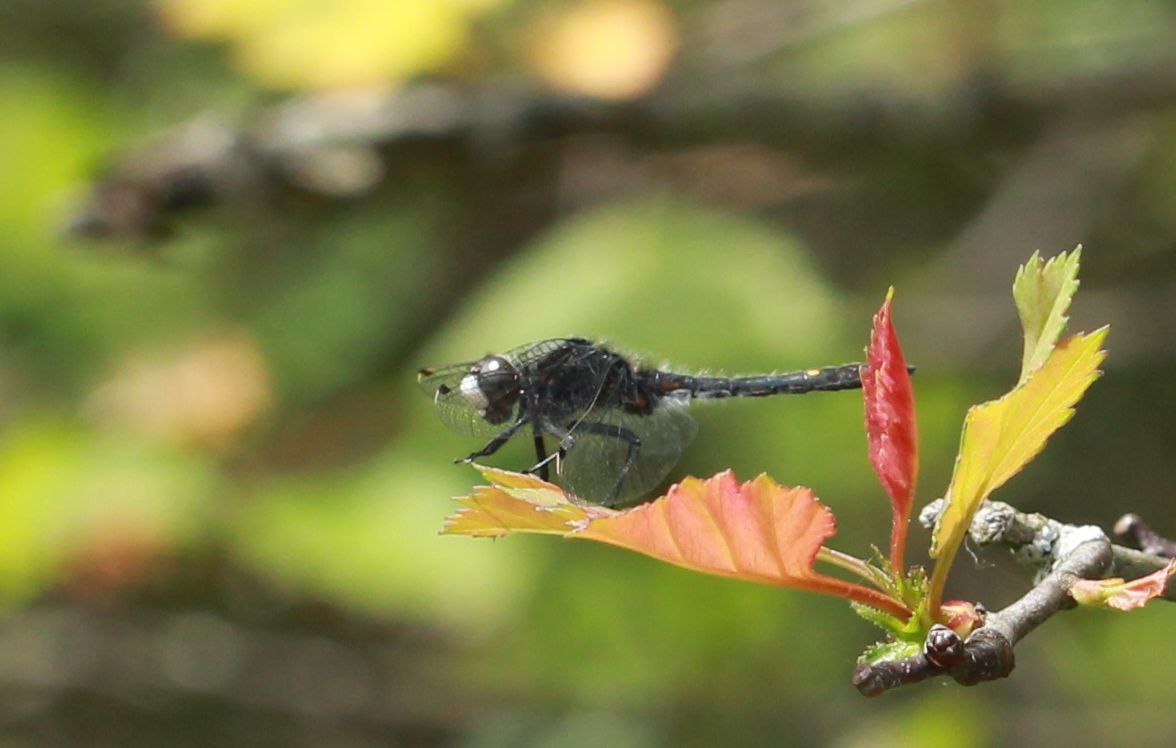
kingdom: Animalia
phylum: Arthropoda
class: Insecta
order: Odonata
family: Libellulidae
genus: Leucorrhinia
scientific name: Leucorrhinia intacta
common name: Dot-tailed whiteface
